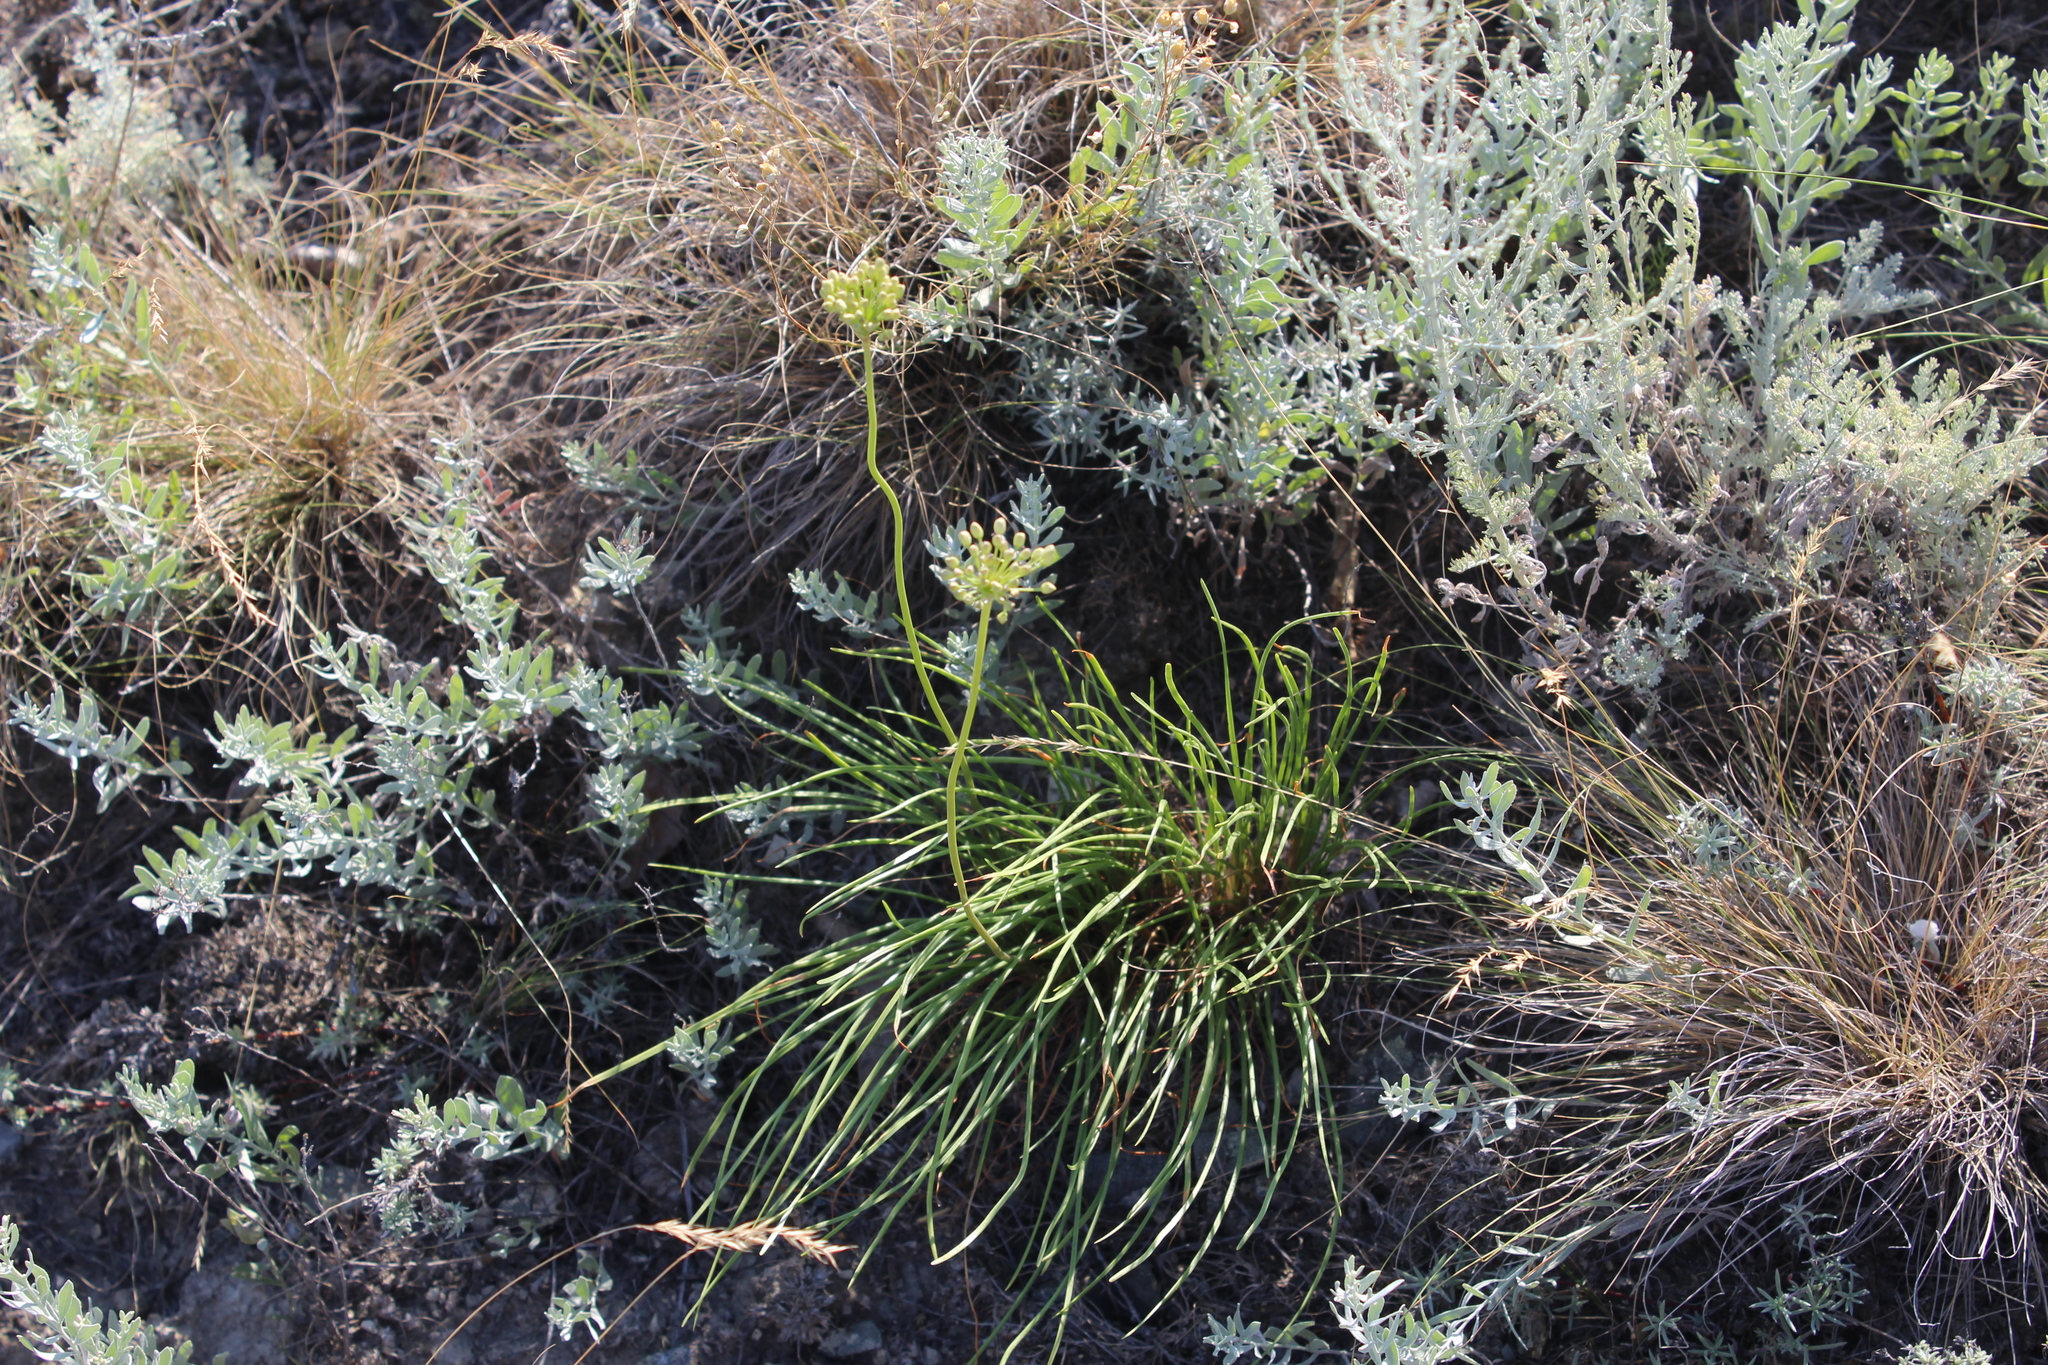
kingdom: Plantae
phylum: Tracheophyta
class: Liliopsida
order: Asparagales
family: Amaryllidaceae
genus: Allium
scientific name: Allium flavescens
